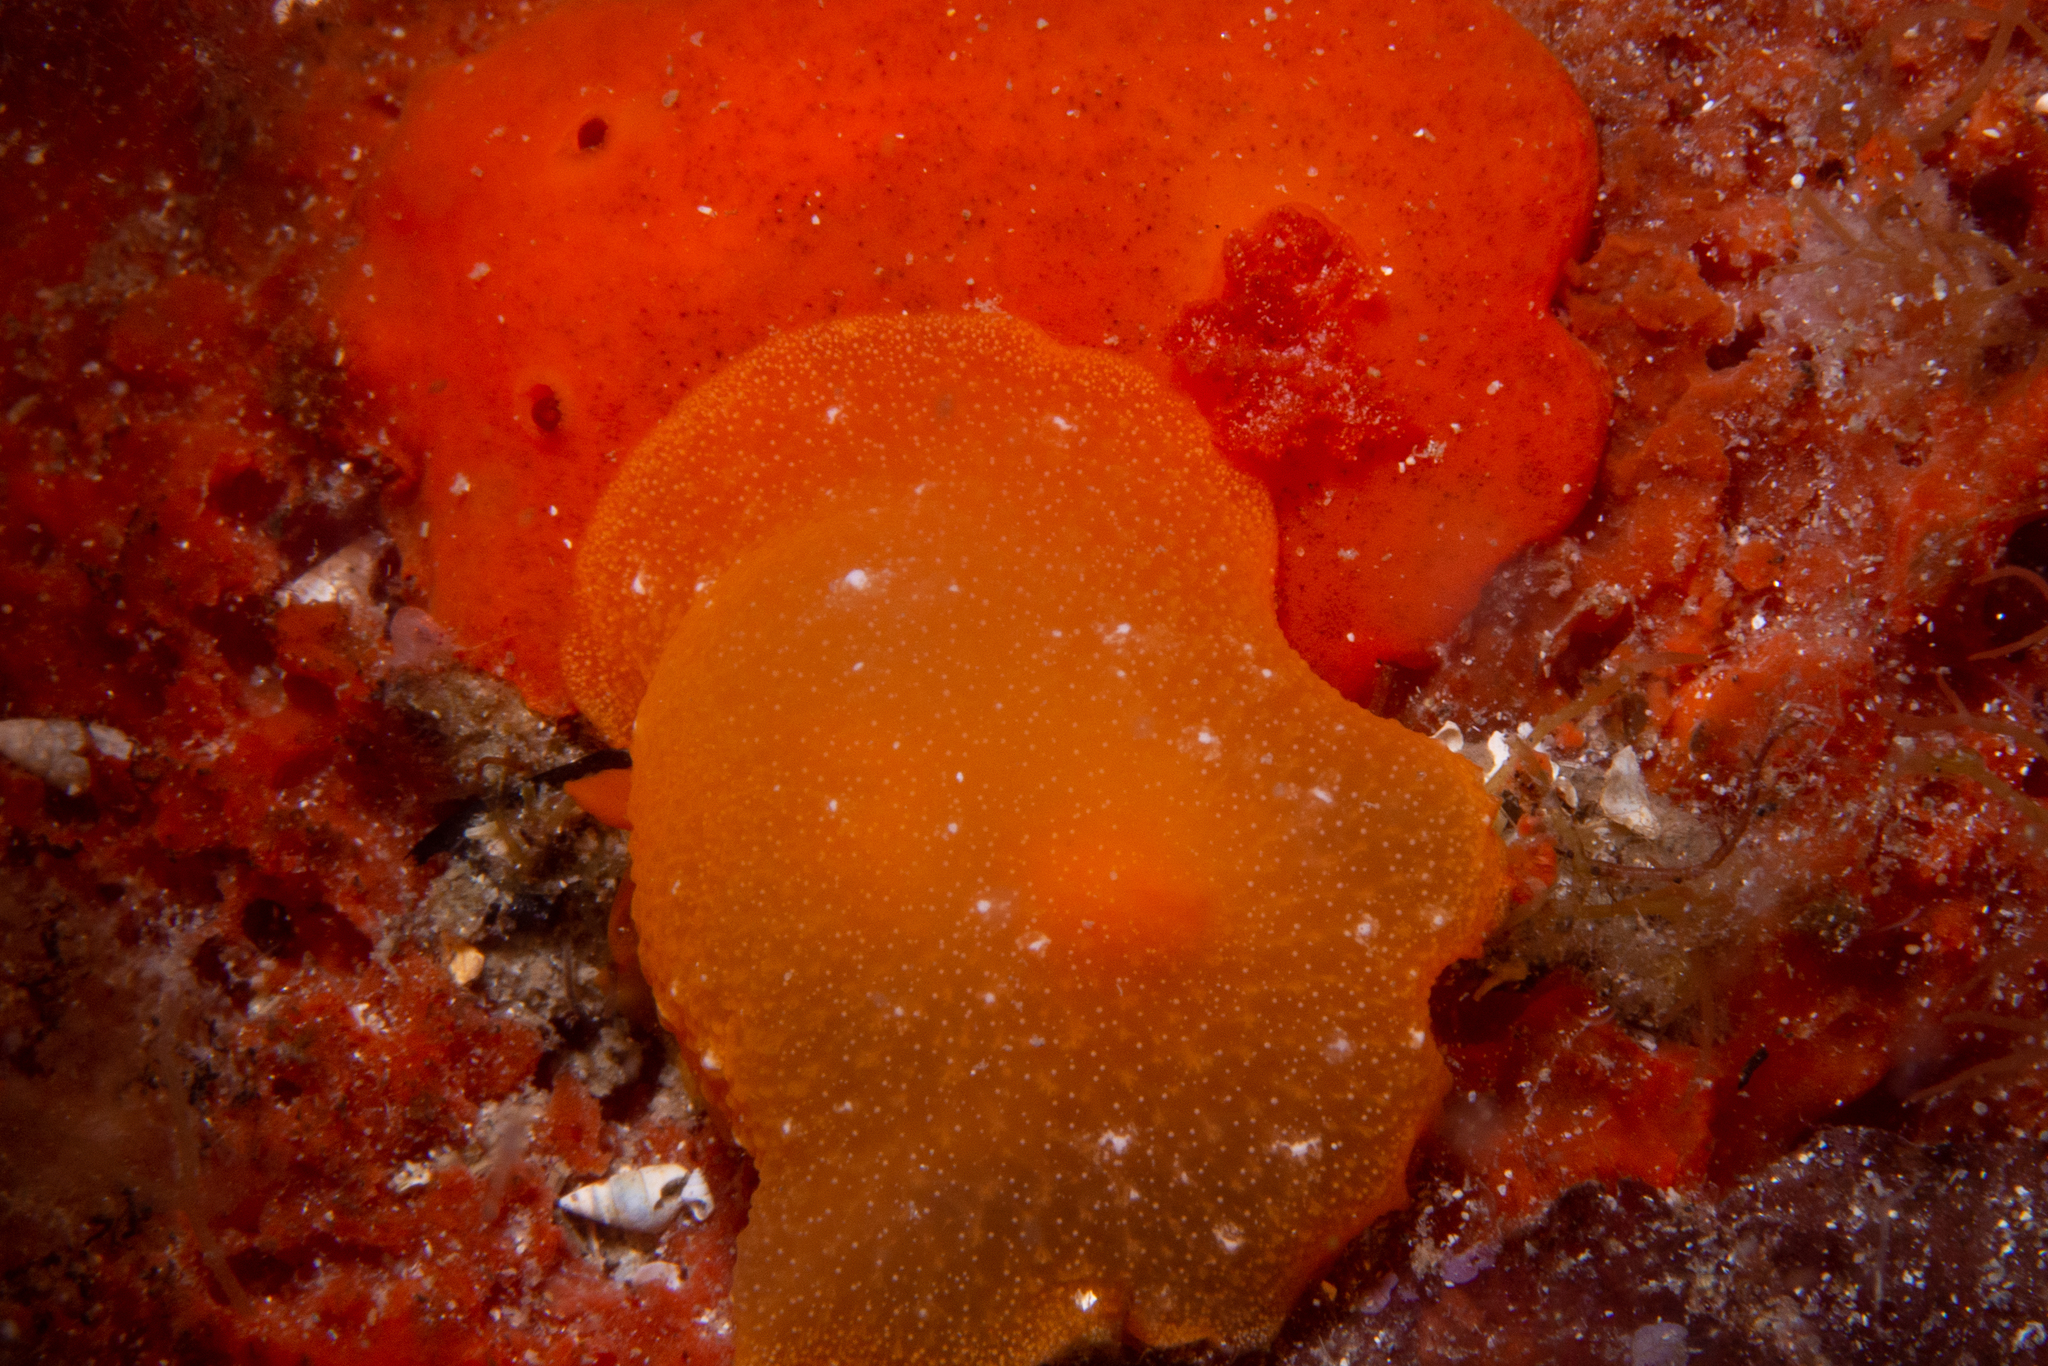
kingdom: Animalia
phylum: Mollusca
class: Gastropoda
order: Nudibranchia
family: Dendrodorididae
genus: Doriopsilla
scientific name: Doriopsilla aurea
